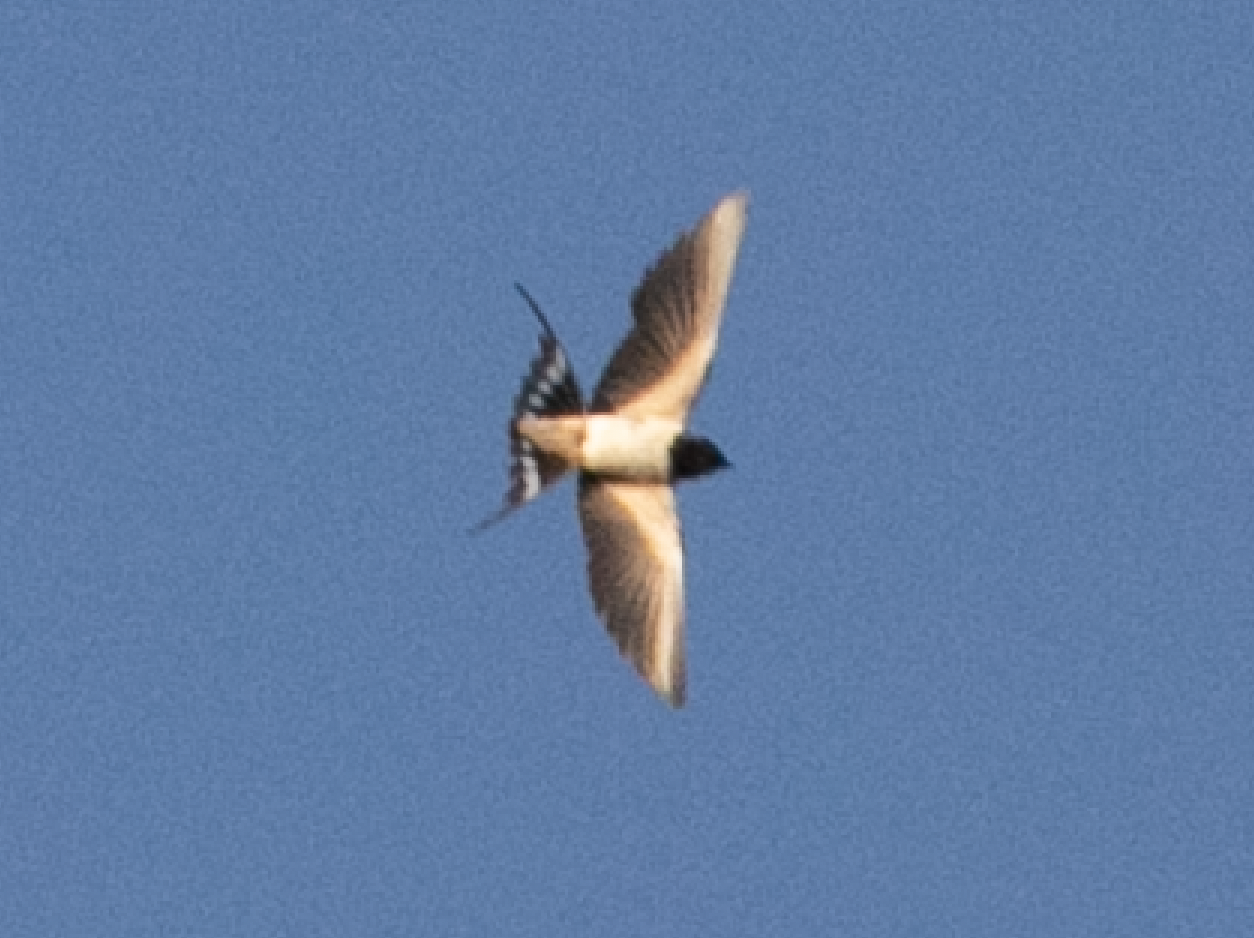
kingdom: Animalia
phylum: Chordata
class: Aves
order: Passeriformes
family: Hirundinidae
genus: Hirundo
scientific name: Hirundo rustica
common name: Barn swallow
